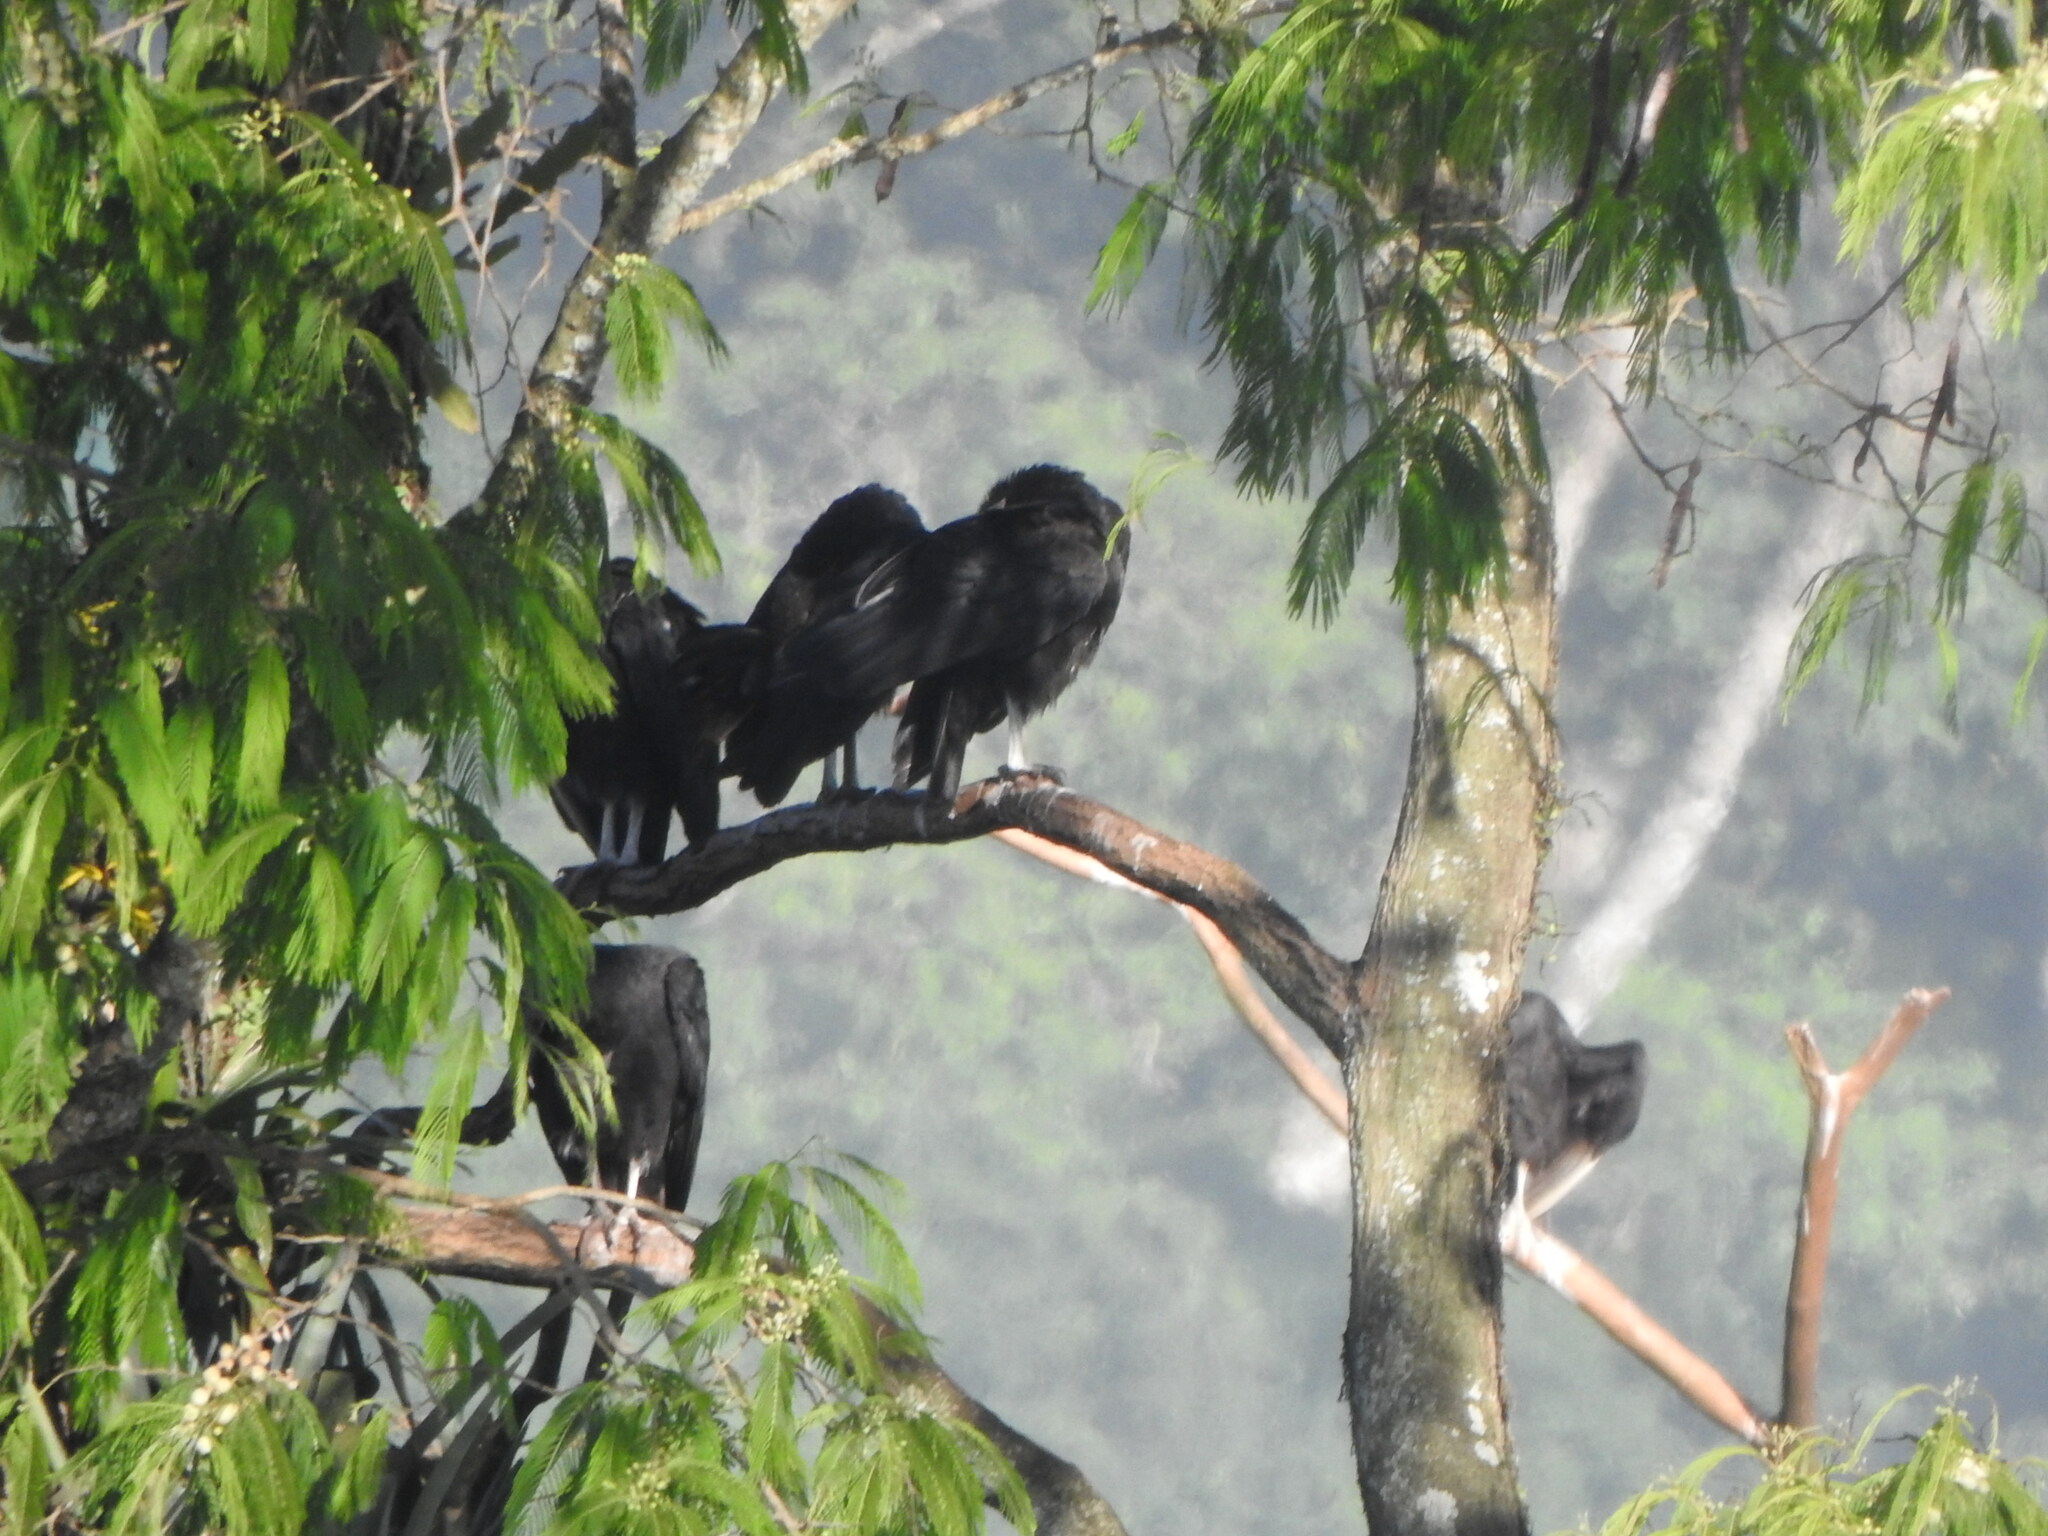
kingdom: Animalia
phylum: Chordata
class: Aves
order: Accipitriformes
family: Cathartidae
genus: Coragyps
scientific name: Coragyps atratus
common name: Black vulture
